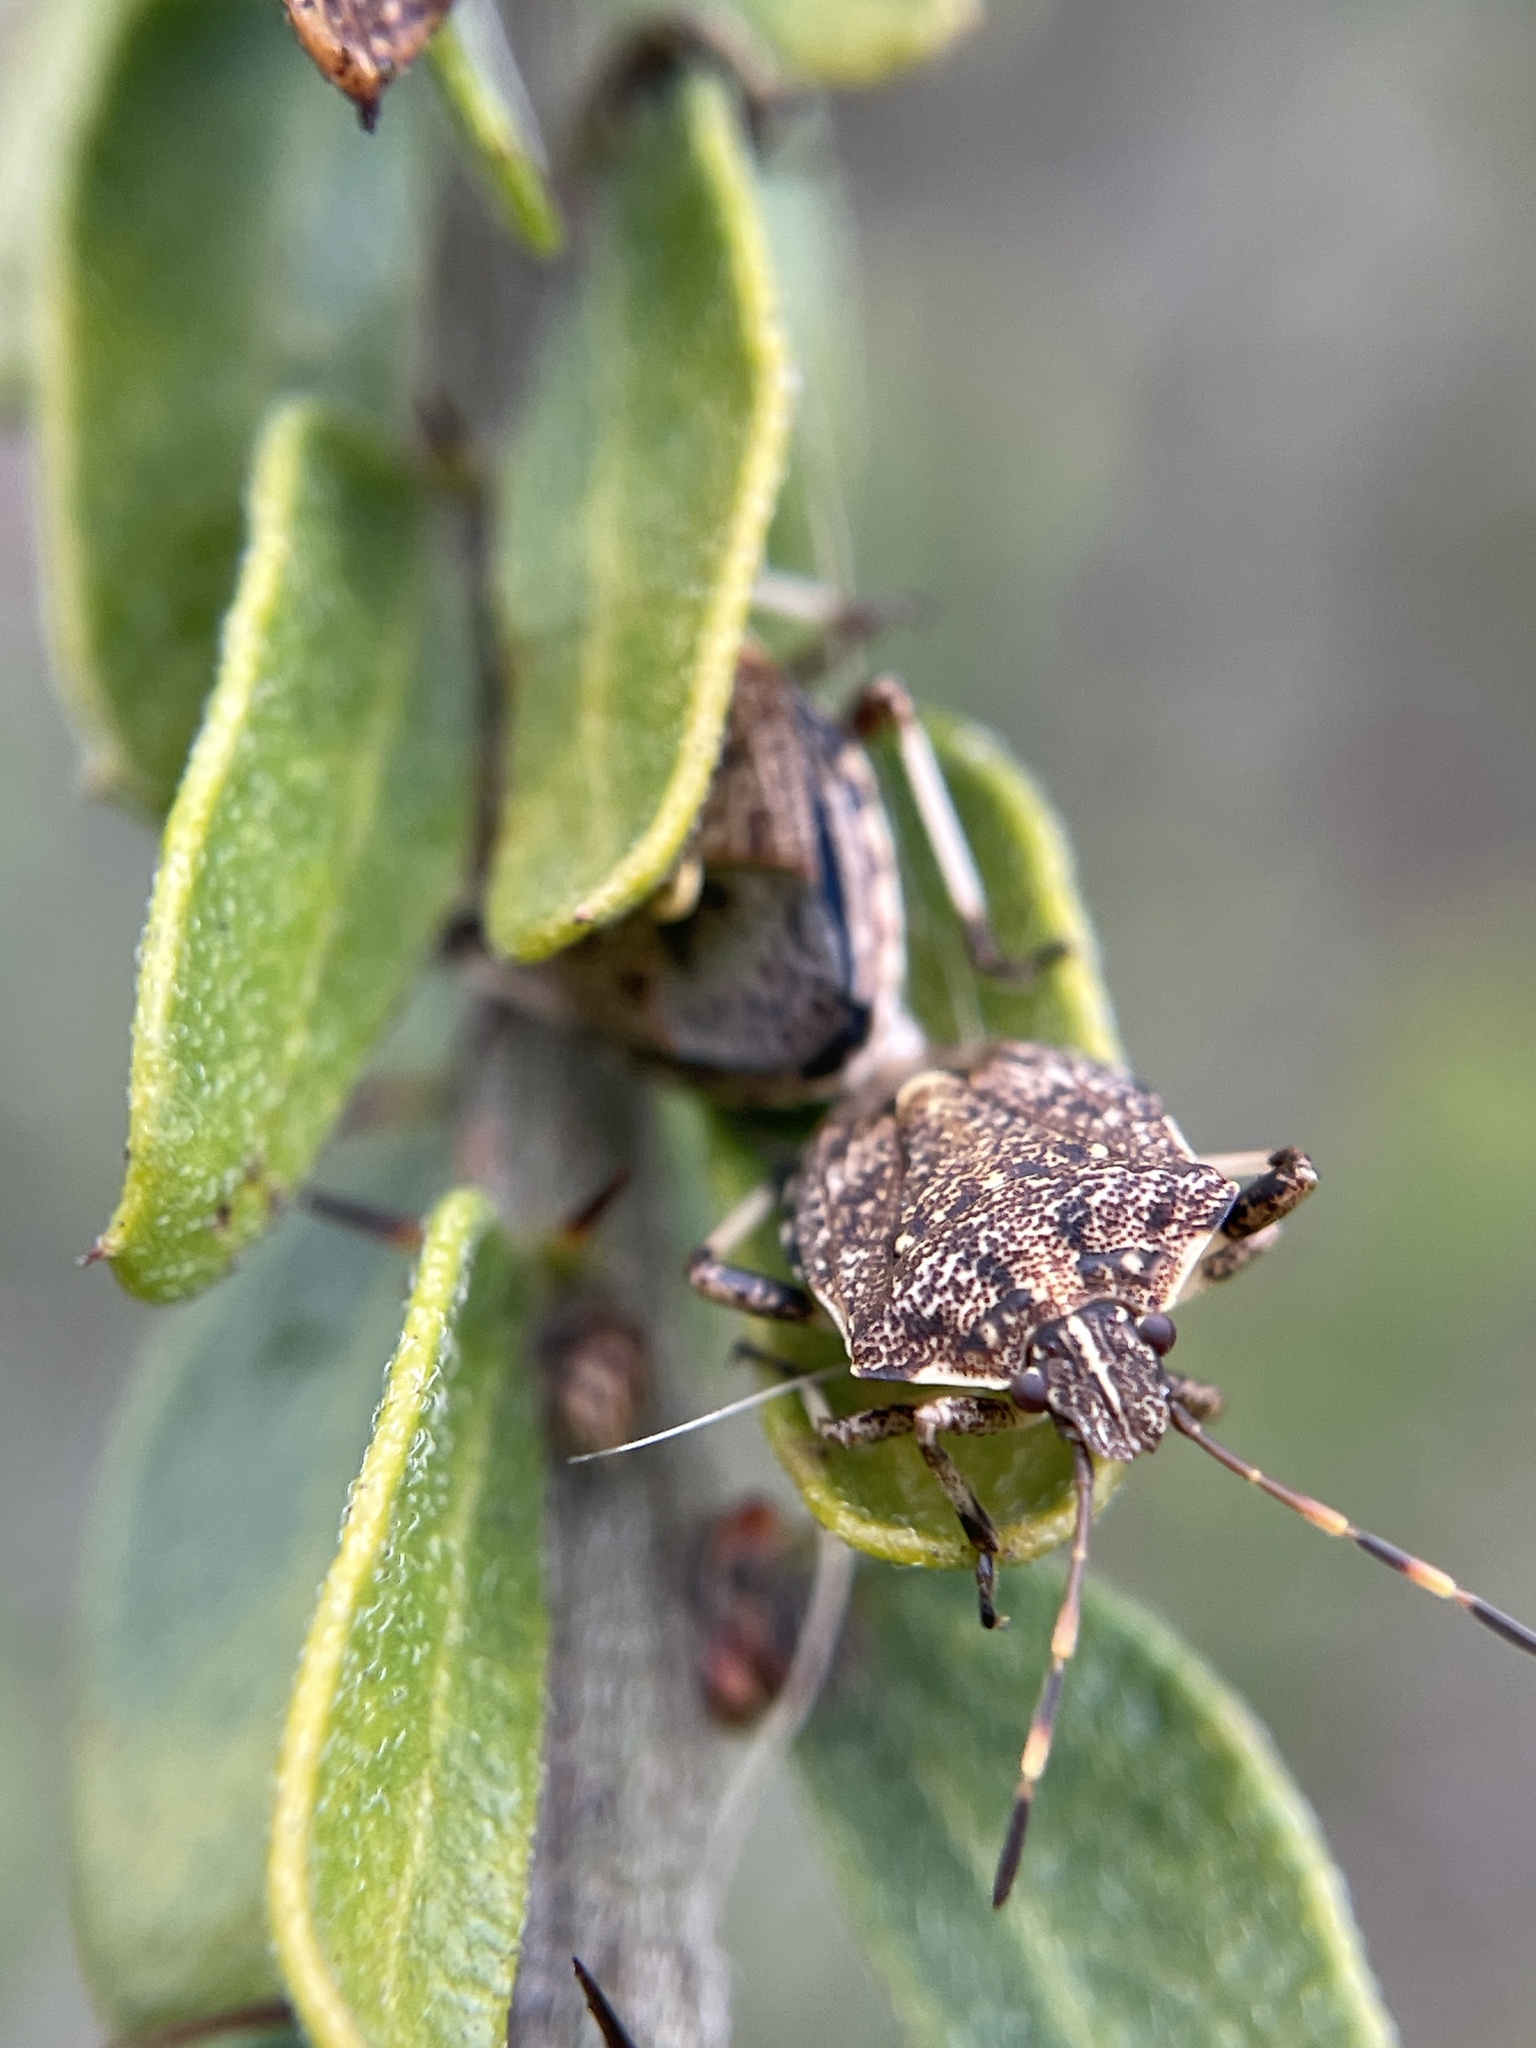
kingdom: Animalia
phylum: Arthropoda
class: Insecta
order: Hemiptera
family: Pentatomidae
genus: Oncocoris
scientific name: Oncocoris
